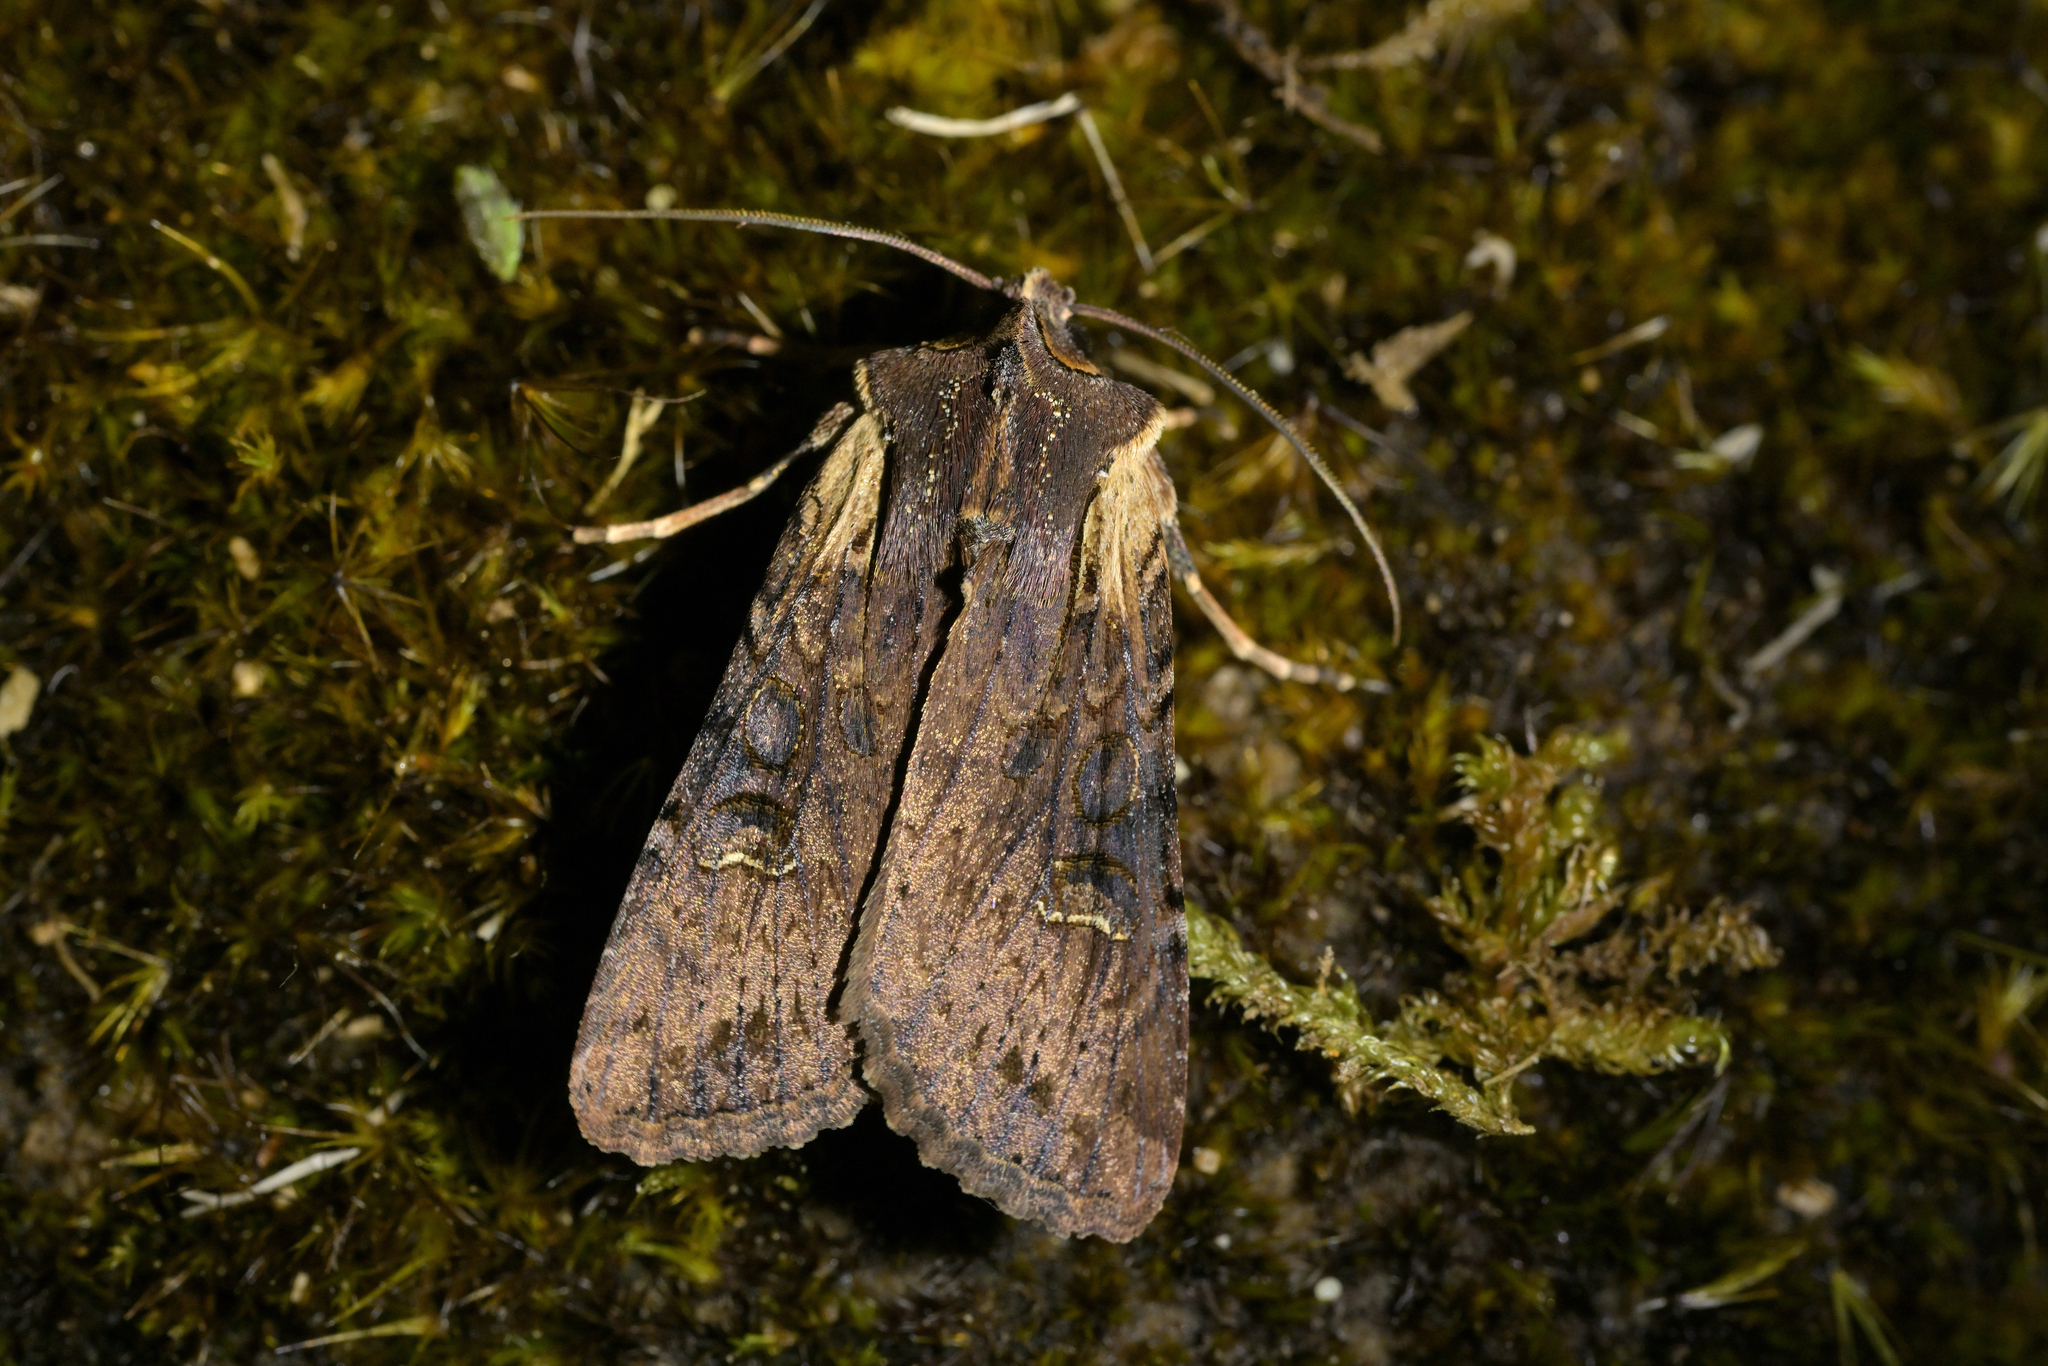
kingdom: Animalia
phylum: Arthropoda
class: Insecta
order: Lepidoptera
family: Noctuidae
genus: Ichneutica
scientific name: Ichneutica omoplaca
